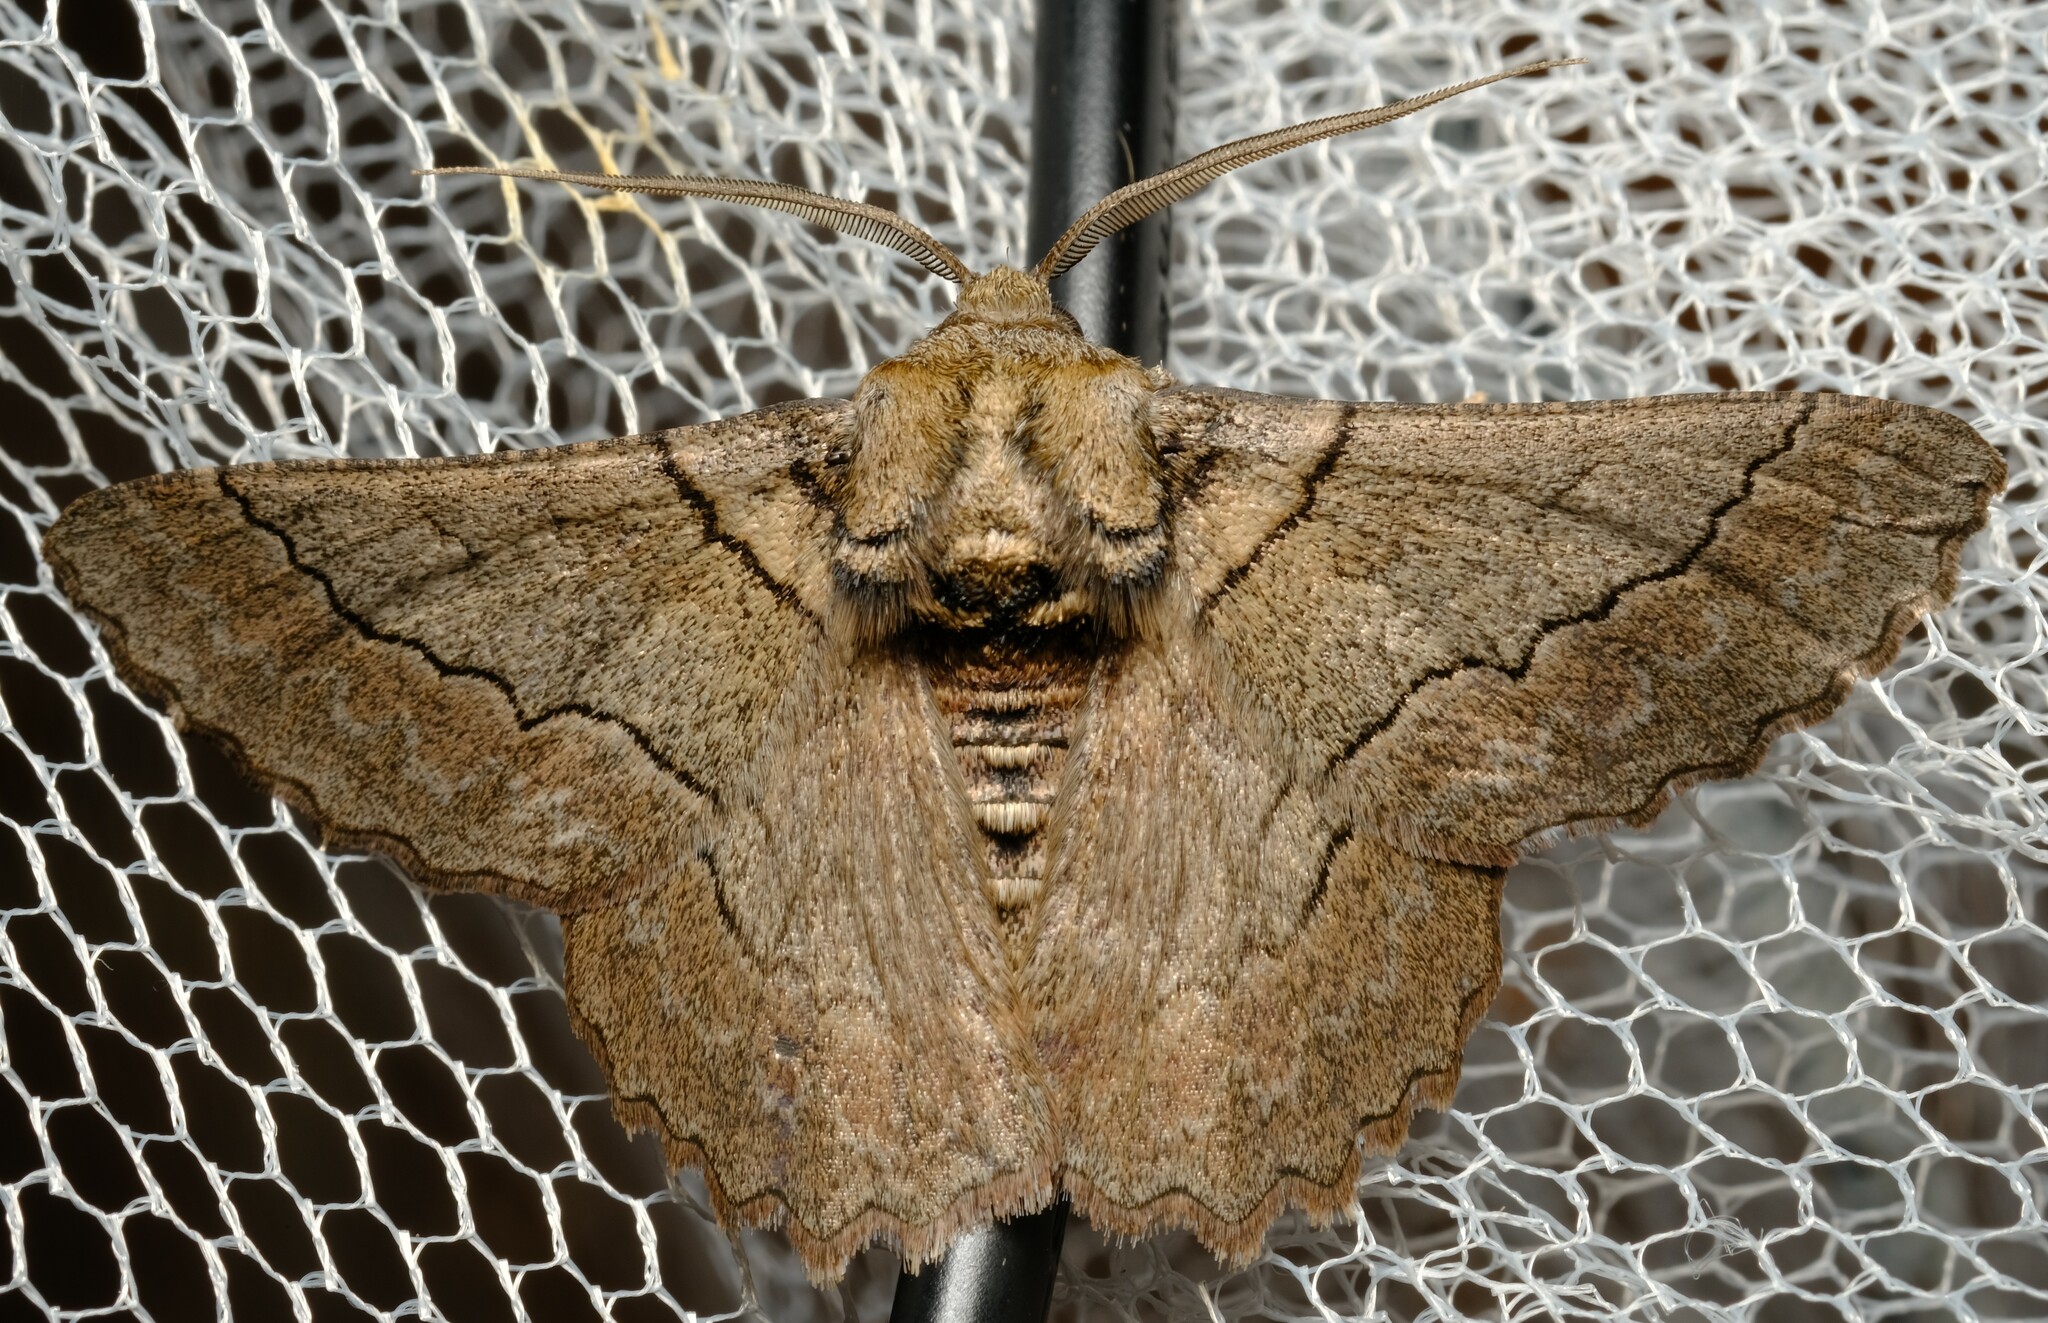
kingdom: Animalia
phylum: Arthropoda
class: Insecta
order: Lepidoptera
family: Geometridae
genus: Hypobapta
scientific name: Hypobapta tachyhalotaria
